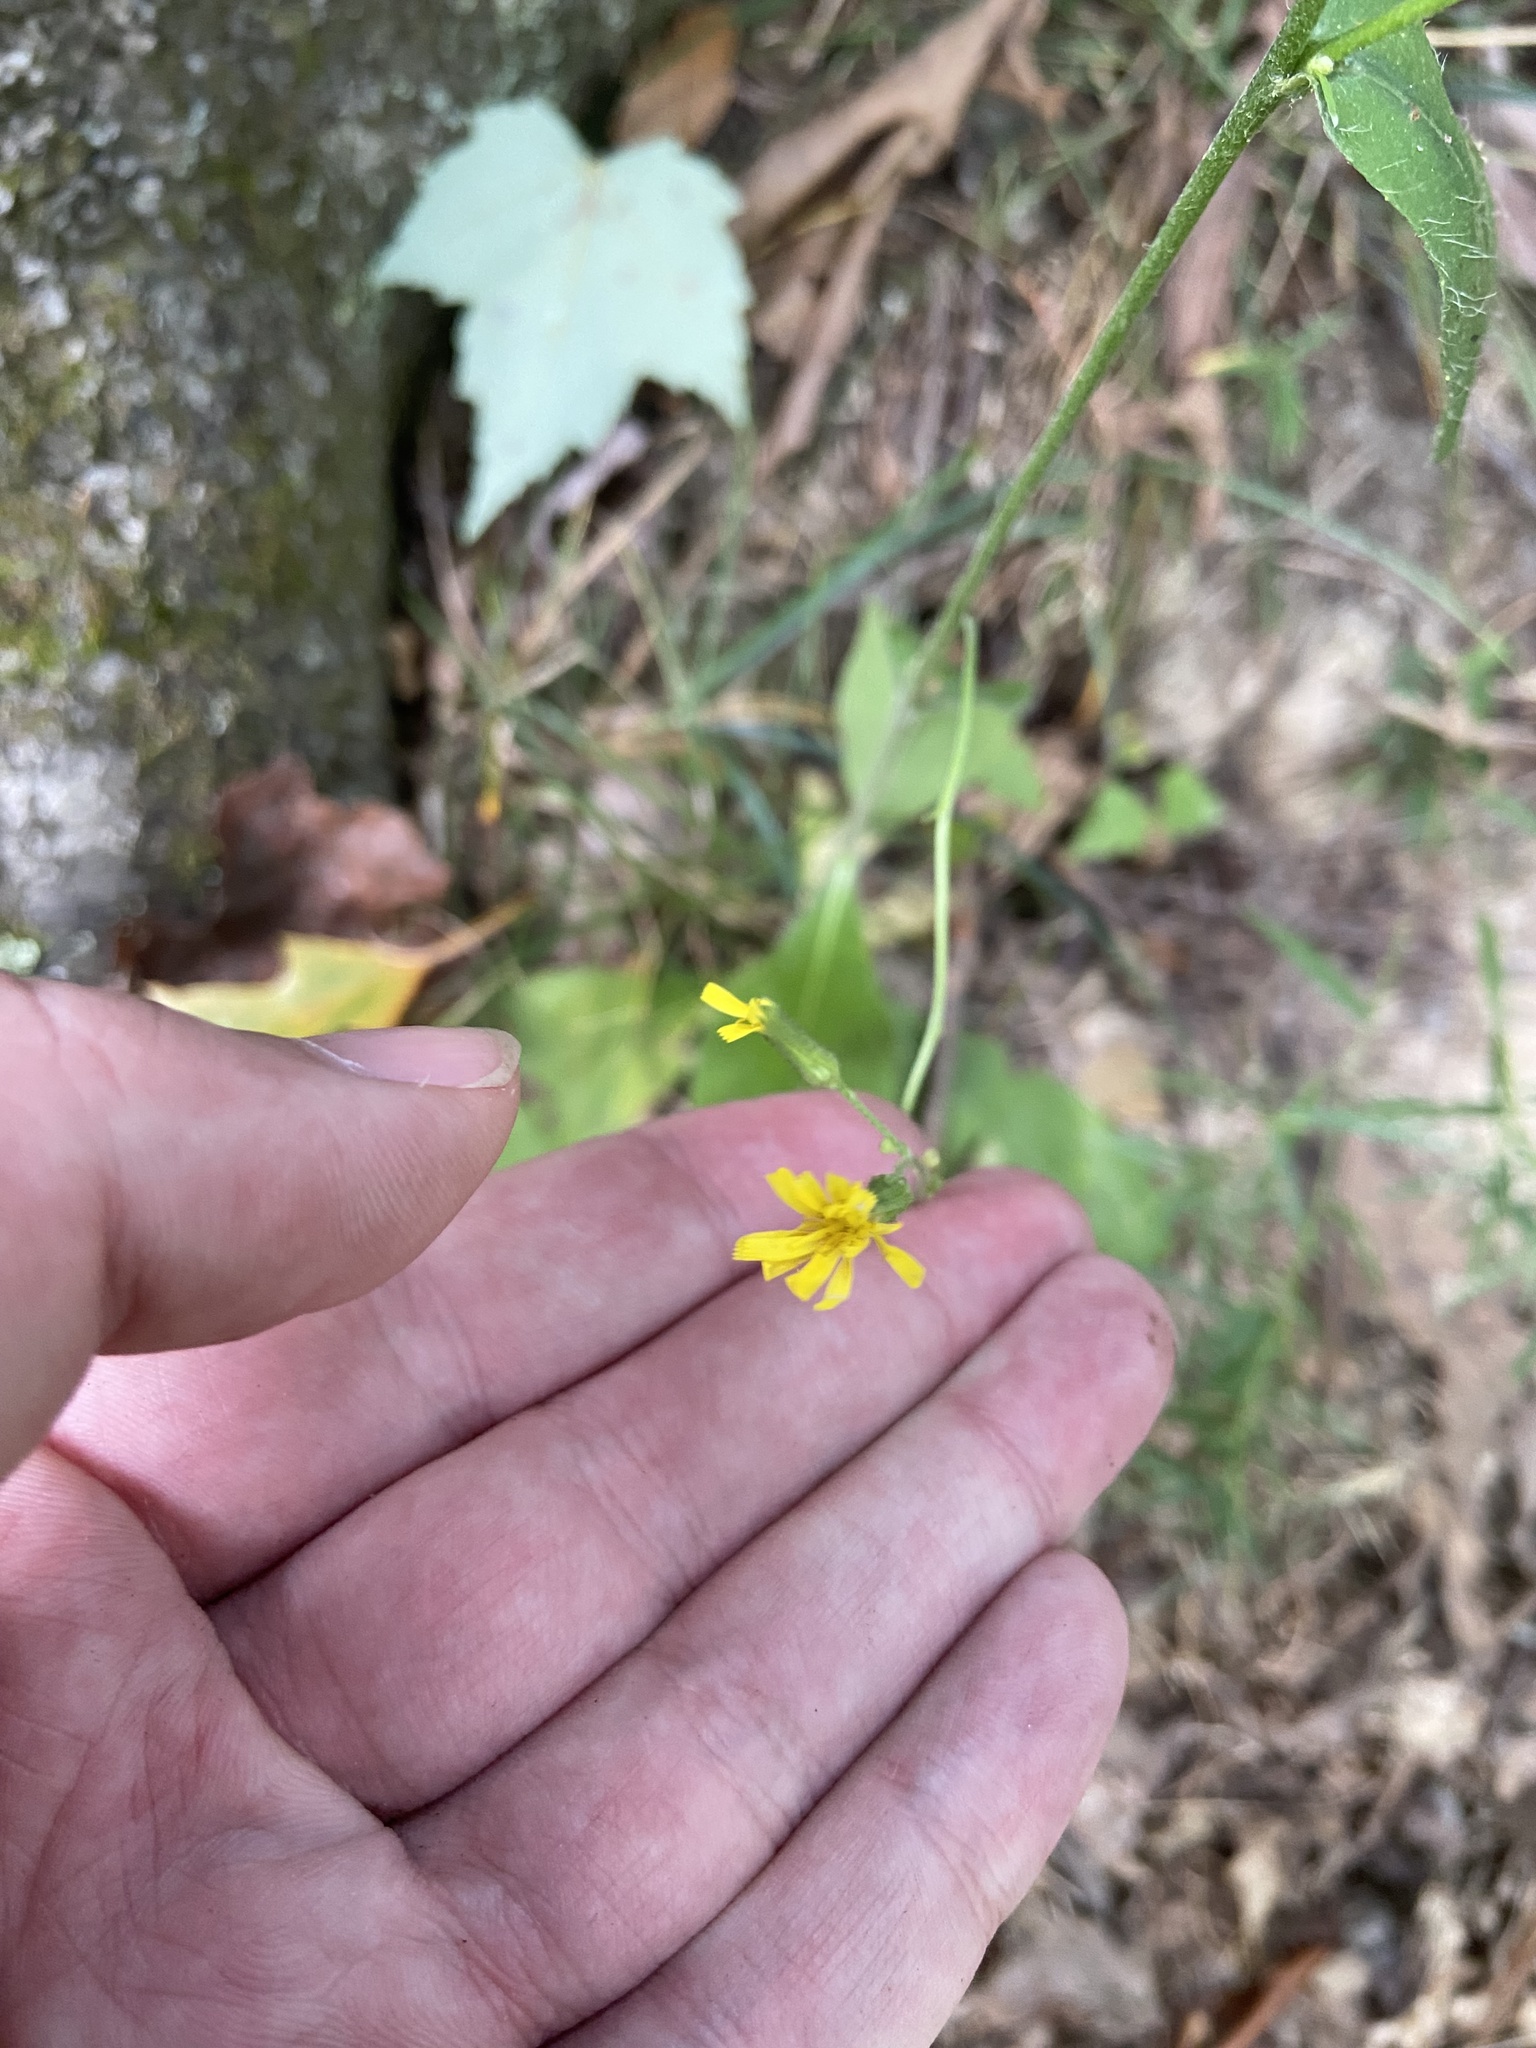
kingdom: Plantae
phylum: Tracheophyta
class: Magnoliopsida
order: Asterales
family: Asteraceae
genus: Hieracium
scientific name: Hieracium gronovii
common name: Beaked hawkweed
